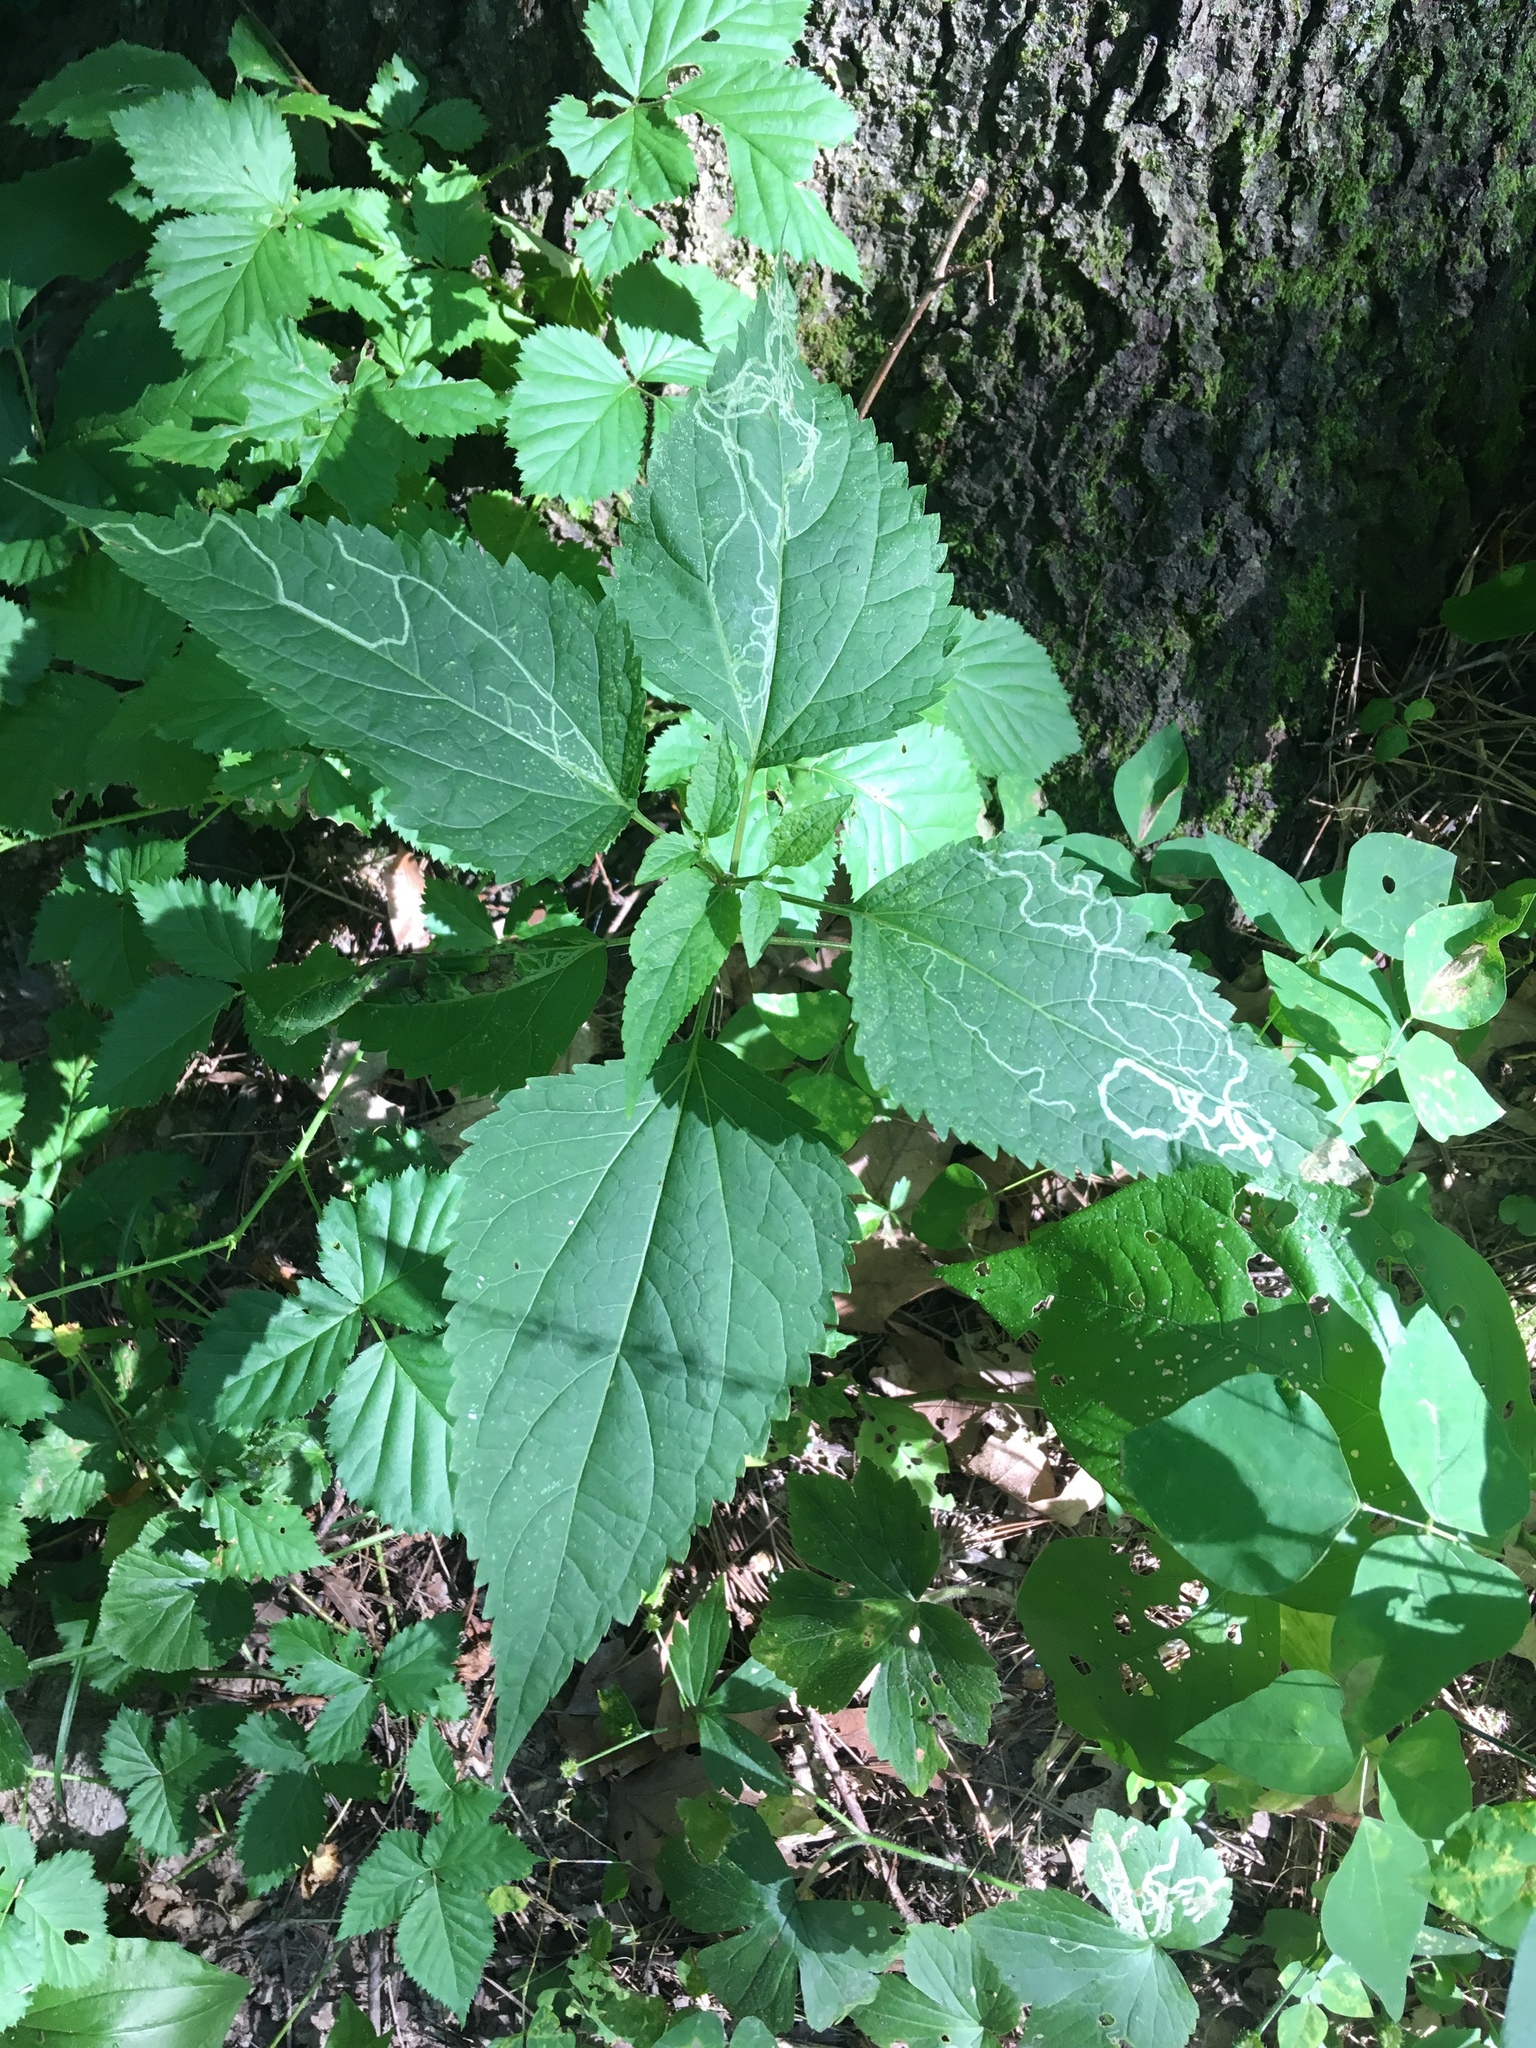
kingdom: Plantae
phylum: Tracheophyta
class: Magnoliopsida
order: Asterales
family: Asteraceae
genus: Ageratina
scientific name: Ageratina altissima
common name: White snakeroot
